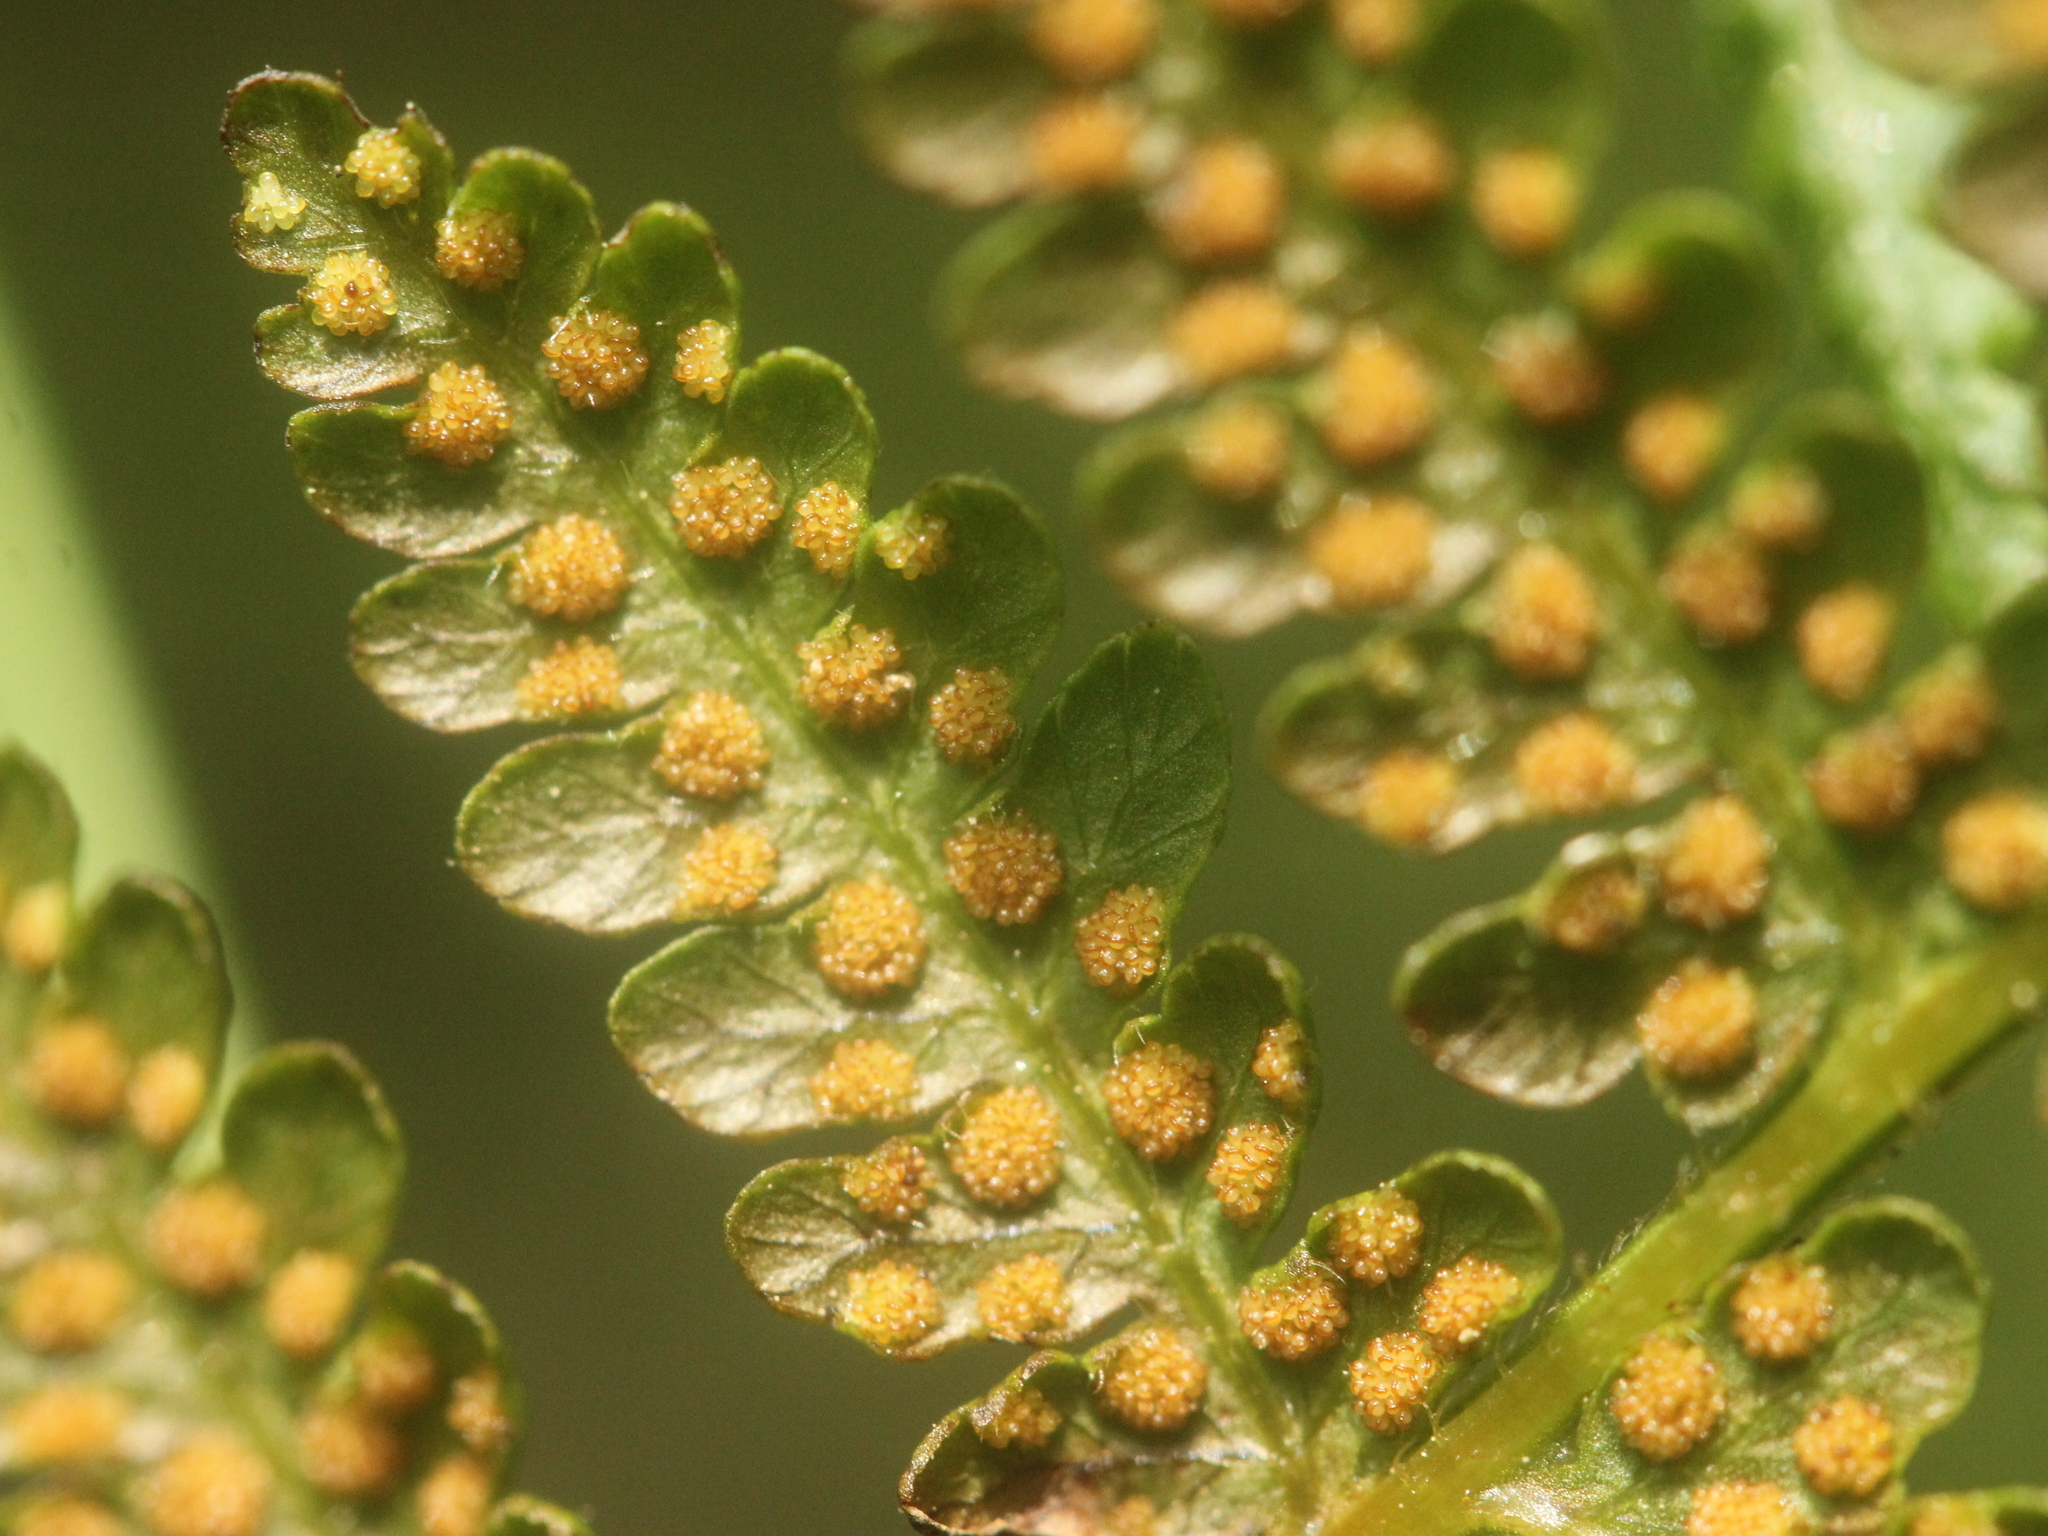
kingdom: Plantae
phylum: Tracheophyta
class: Polypodiopsida
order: Polypodiales
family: Dennstaedtiaceae
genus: Hypolepis
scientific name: Hypolepis ambigua
